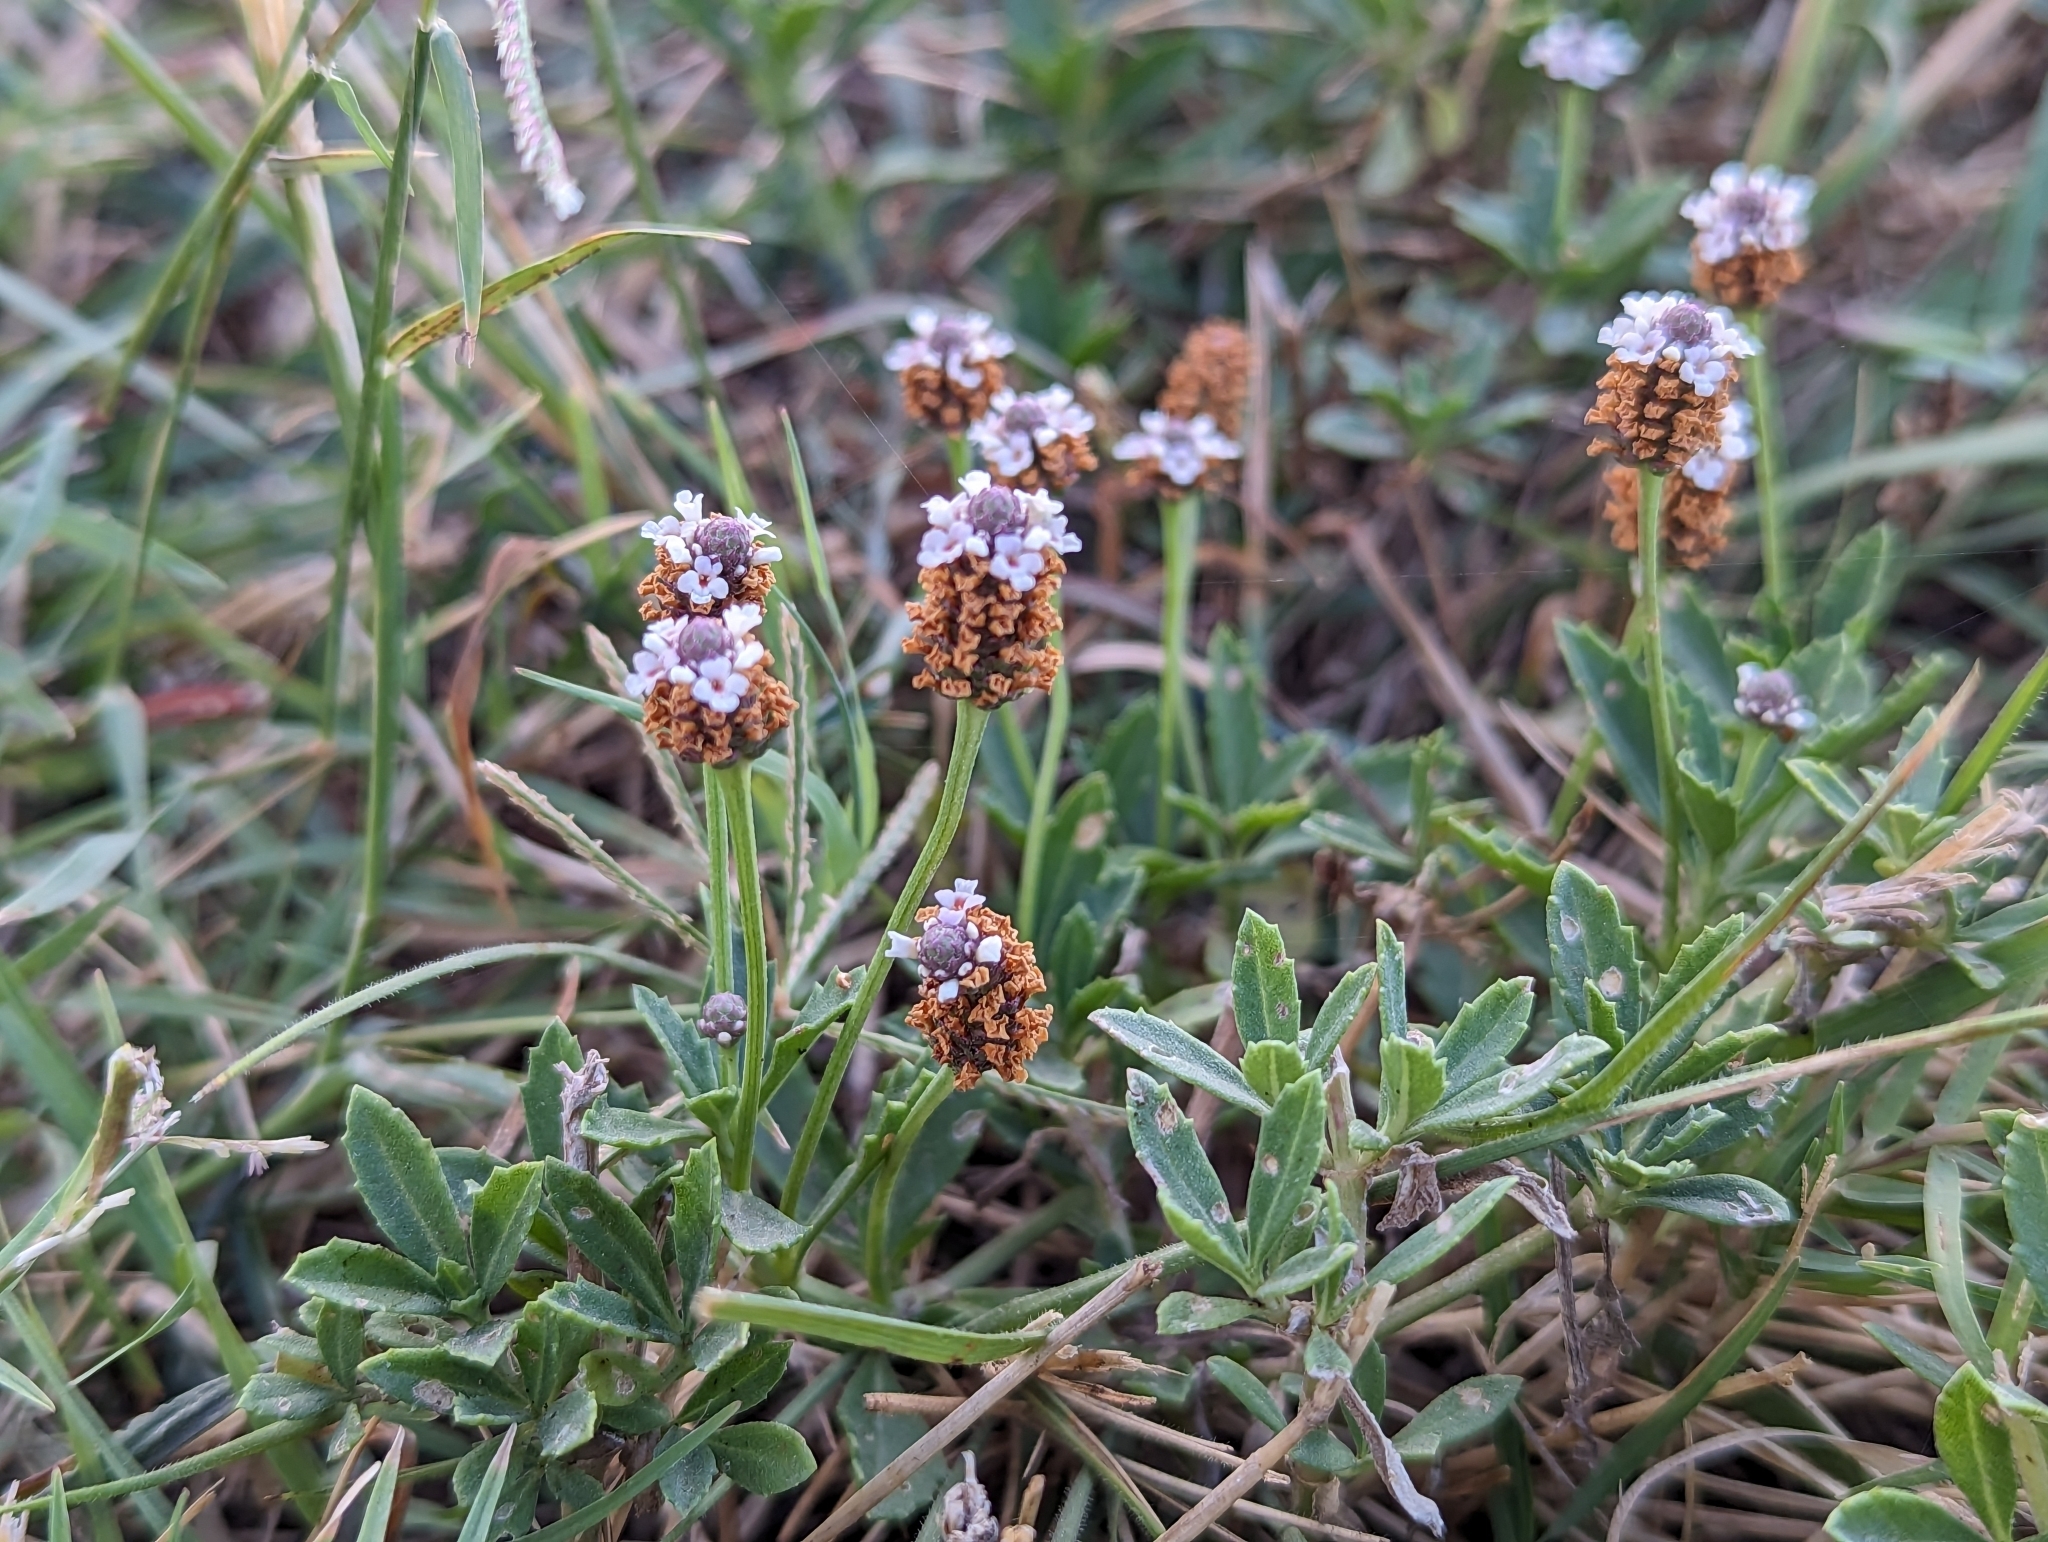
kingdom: Plantae
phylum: Tracheophyta
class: Magnoliopsida
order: Lamiales
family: Verbenaceae
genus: Phyla
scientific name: Phyla nodiflora
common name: Frogfruit
